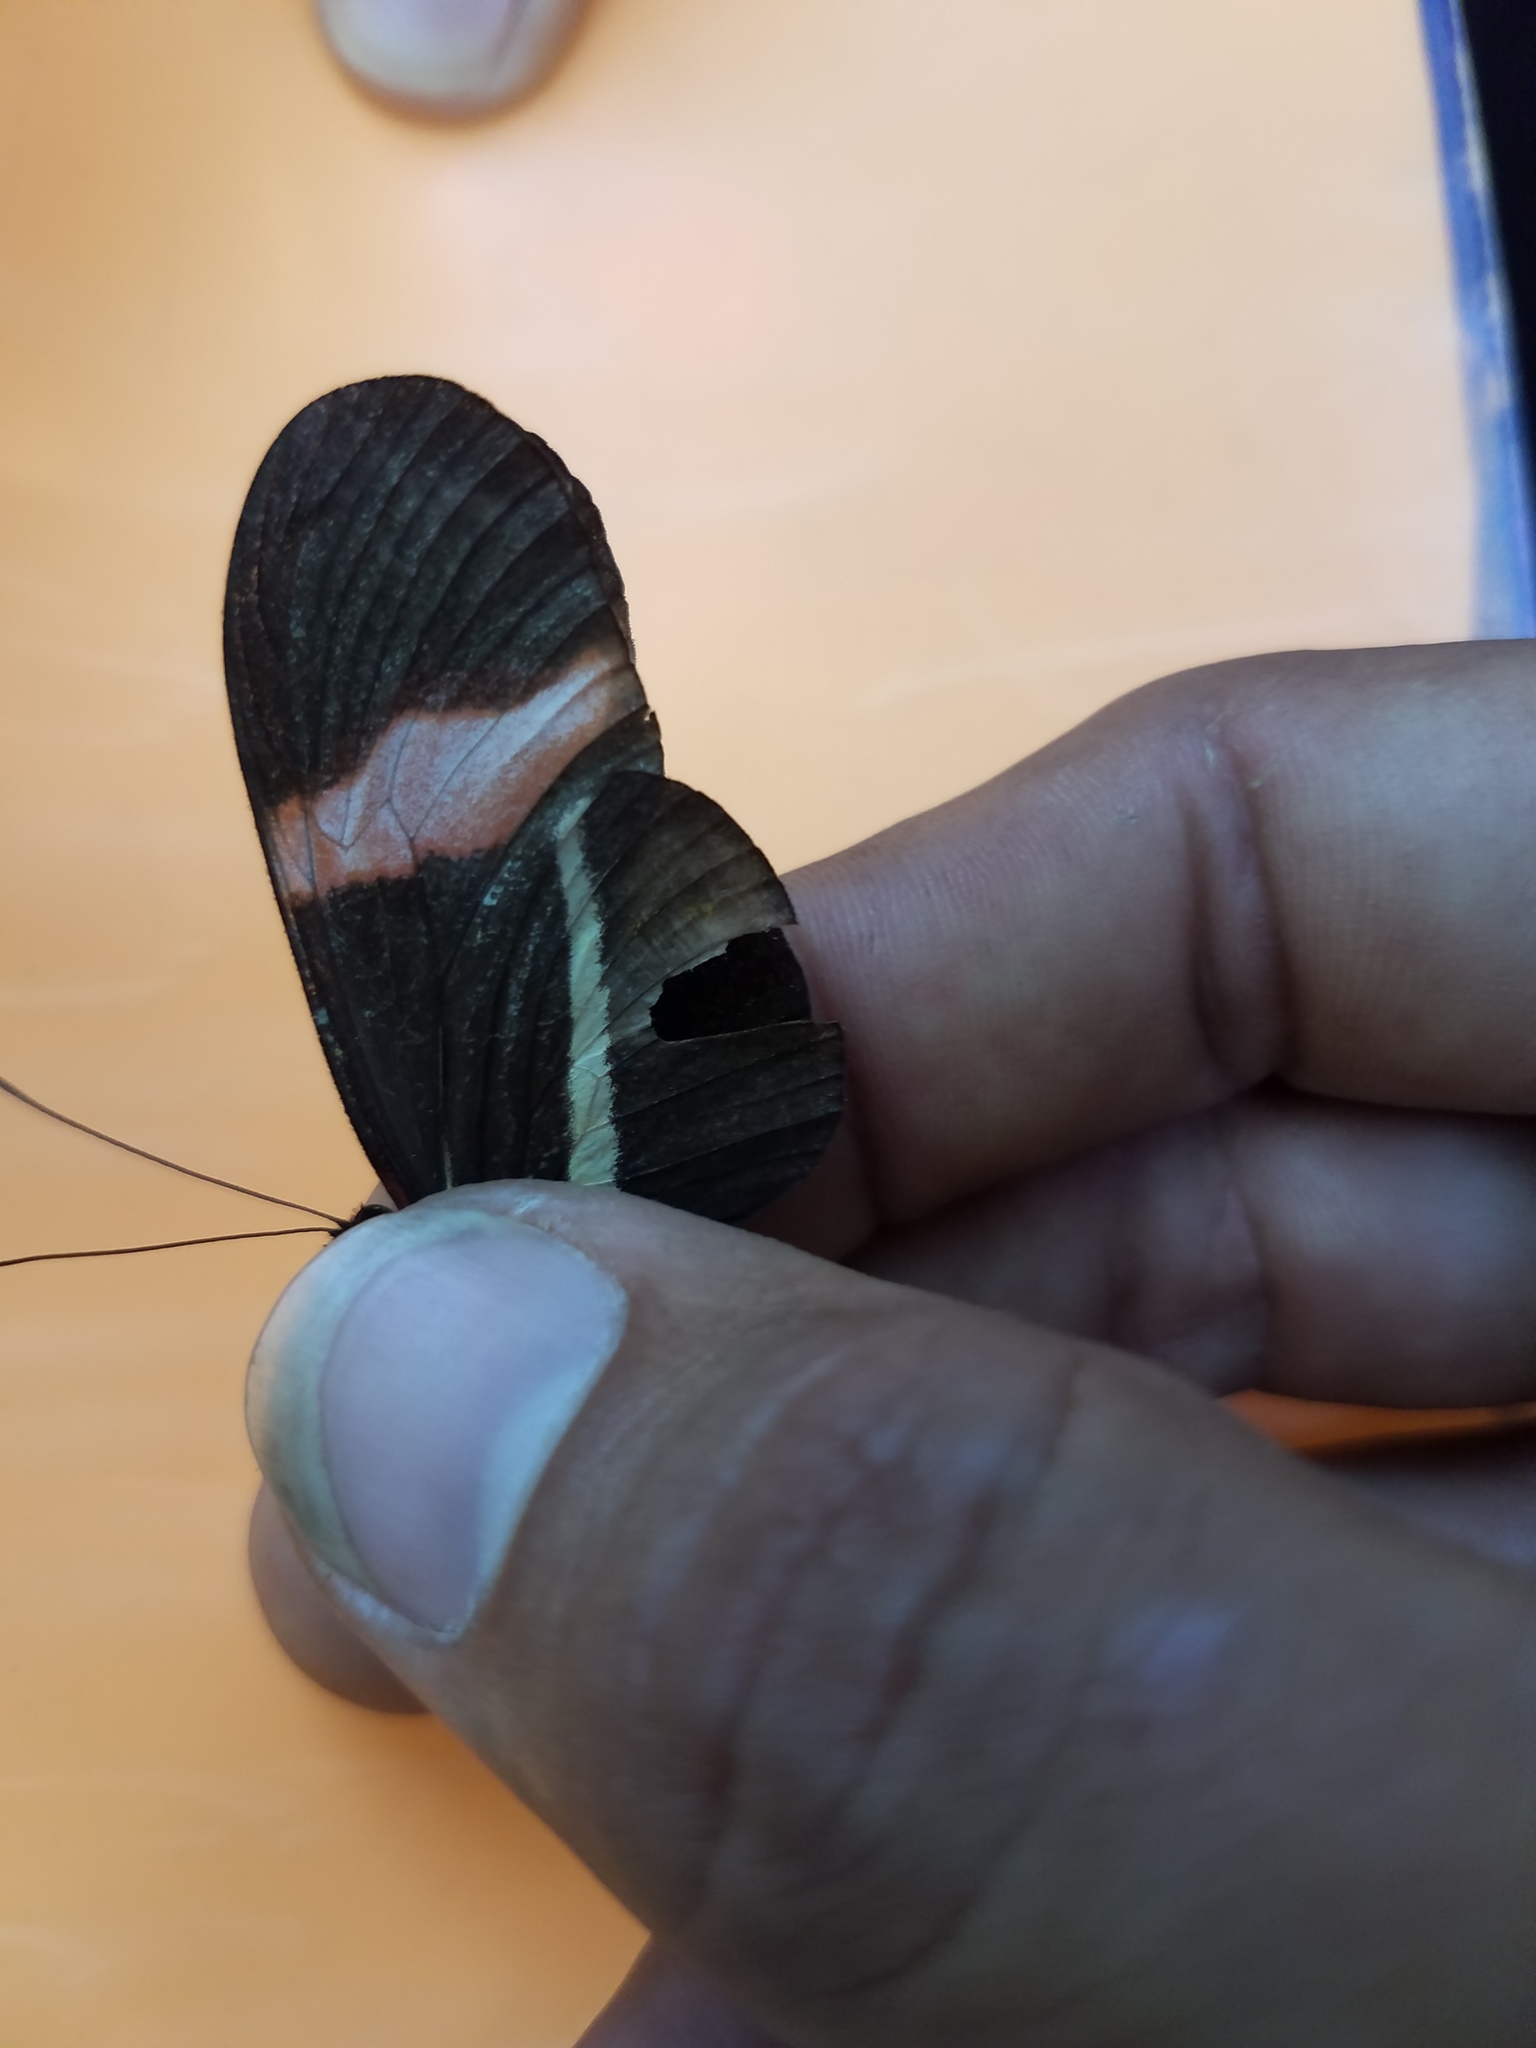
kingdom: Animalia
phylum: Arthropoda
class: Insecta
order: Lepidoptera
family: Nymphalidae
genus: Tirumala
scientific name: Tirumala petiverana
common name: Blue monarch
